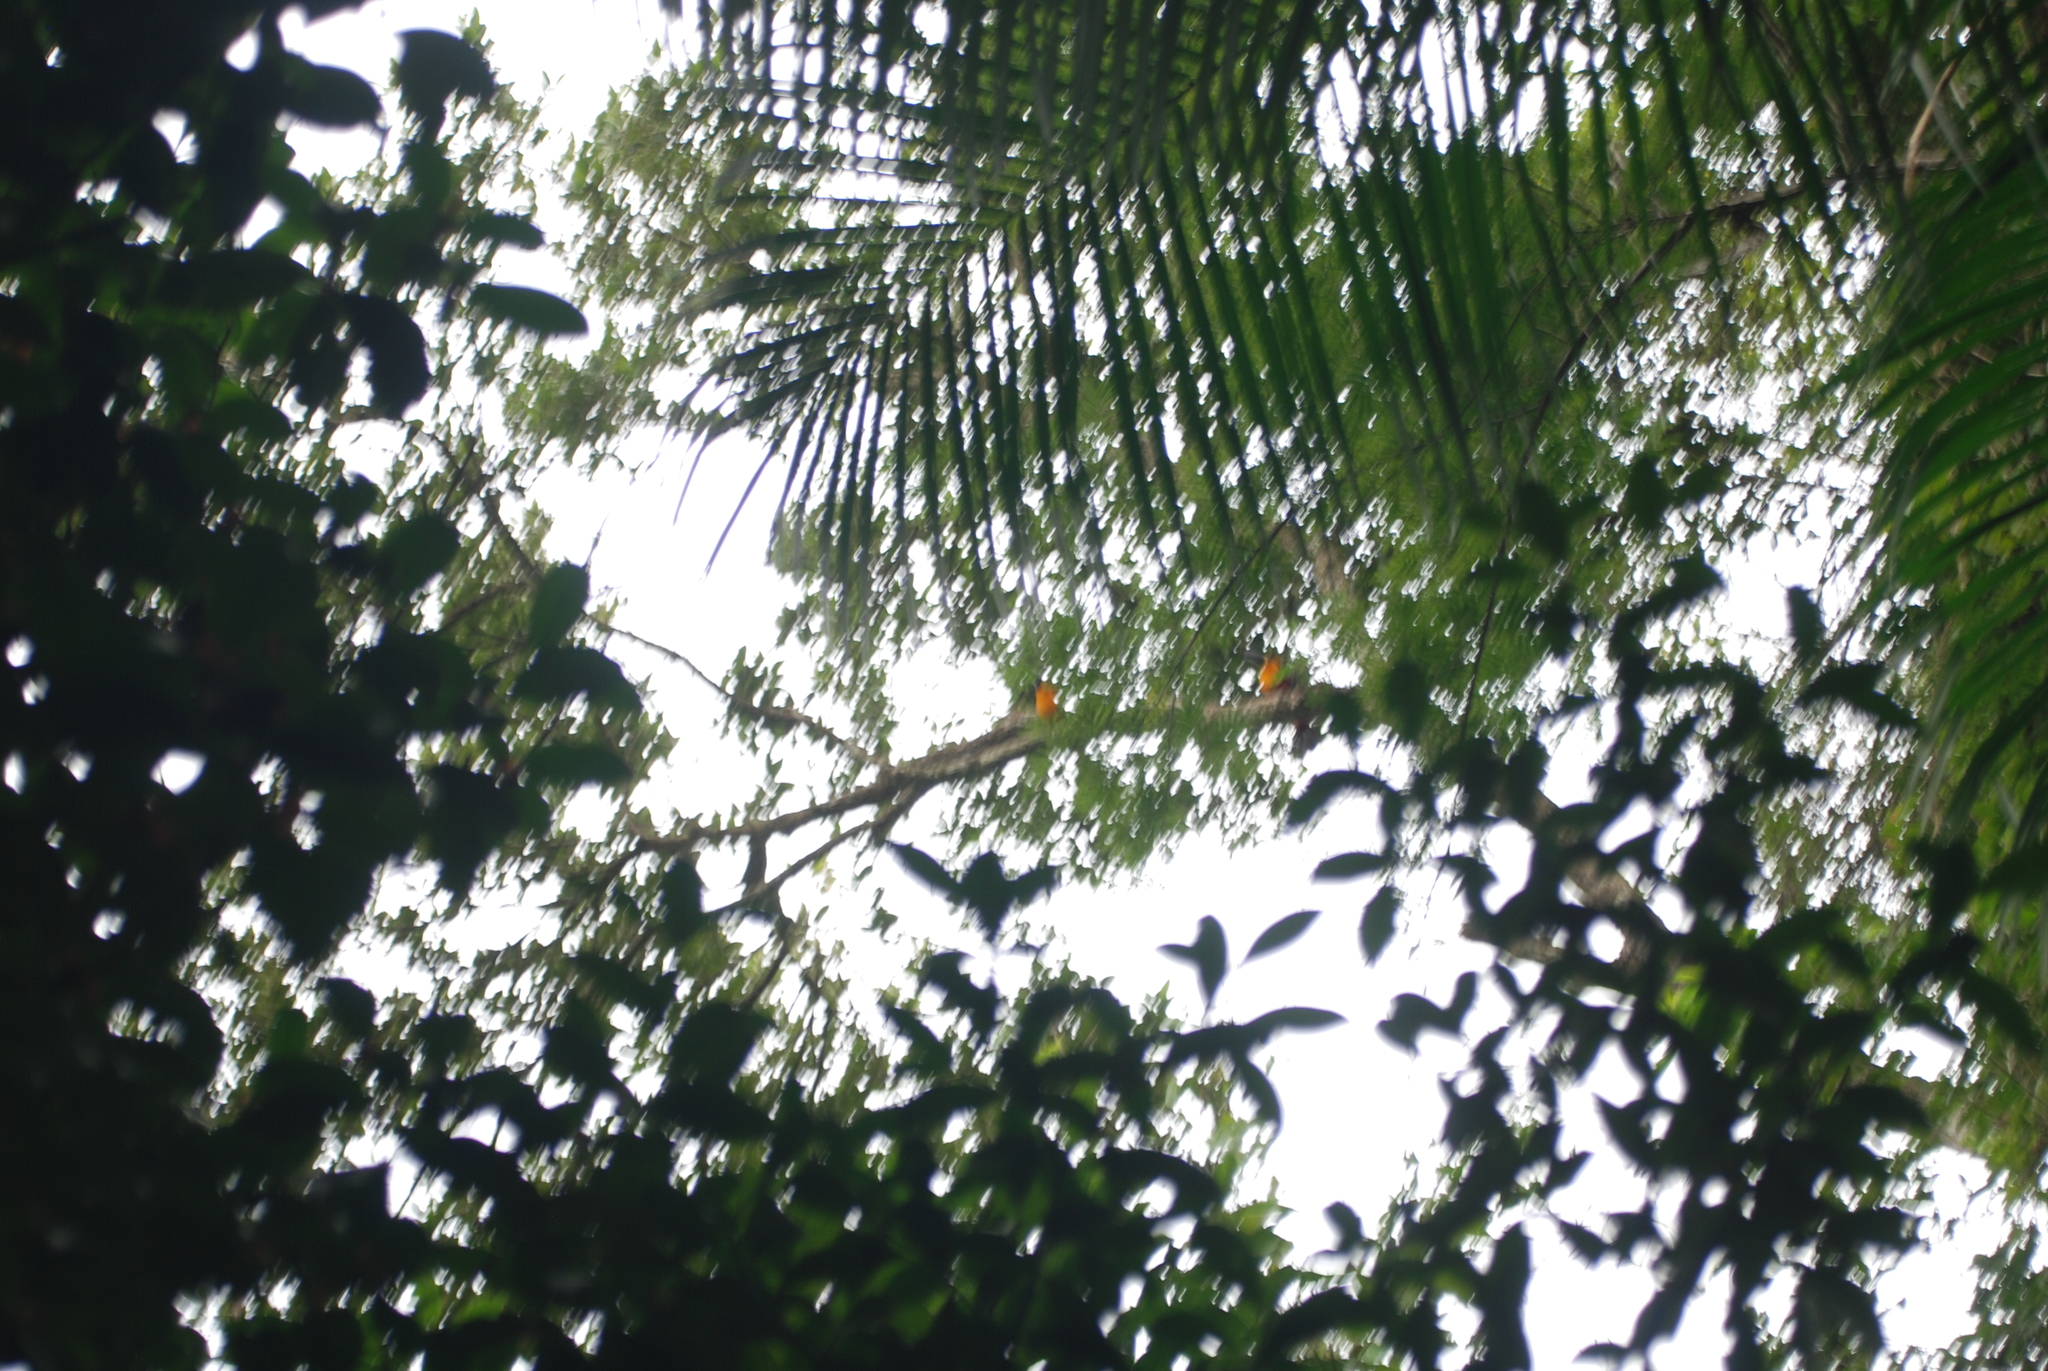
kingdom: Animalia
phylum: Chordata
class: Aves
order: Piciformes
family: Ramphastidae
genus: Ramphastos
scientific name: Ramphastos vitellinus
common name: Channel-billed toucan
